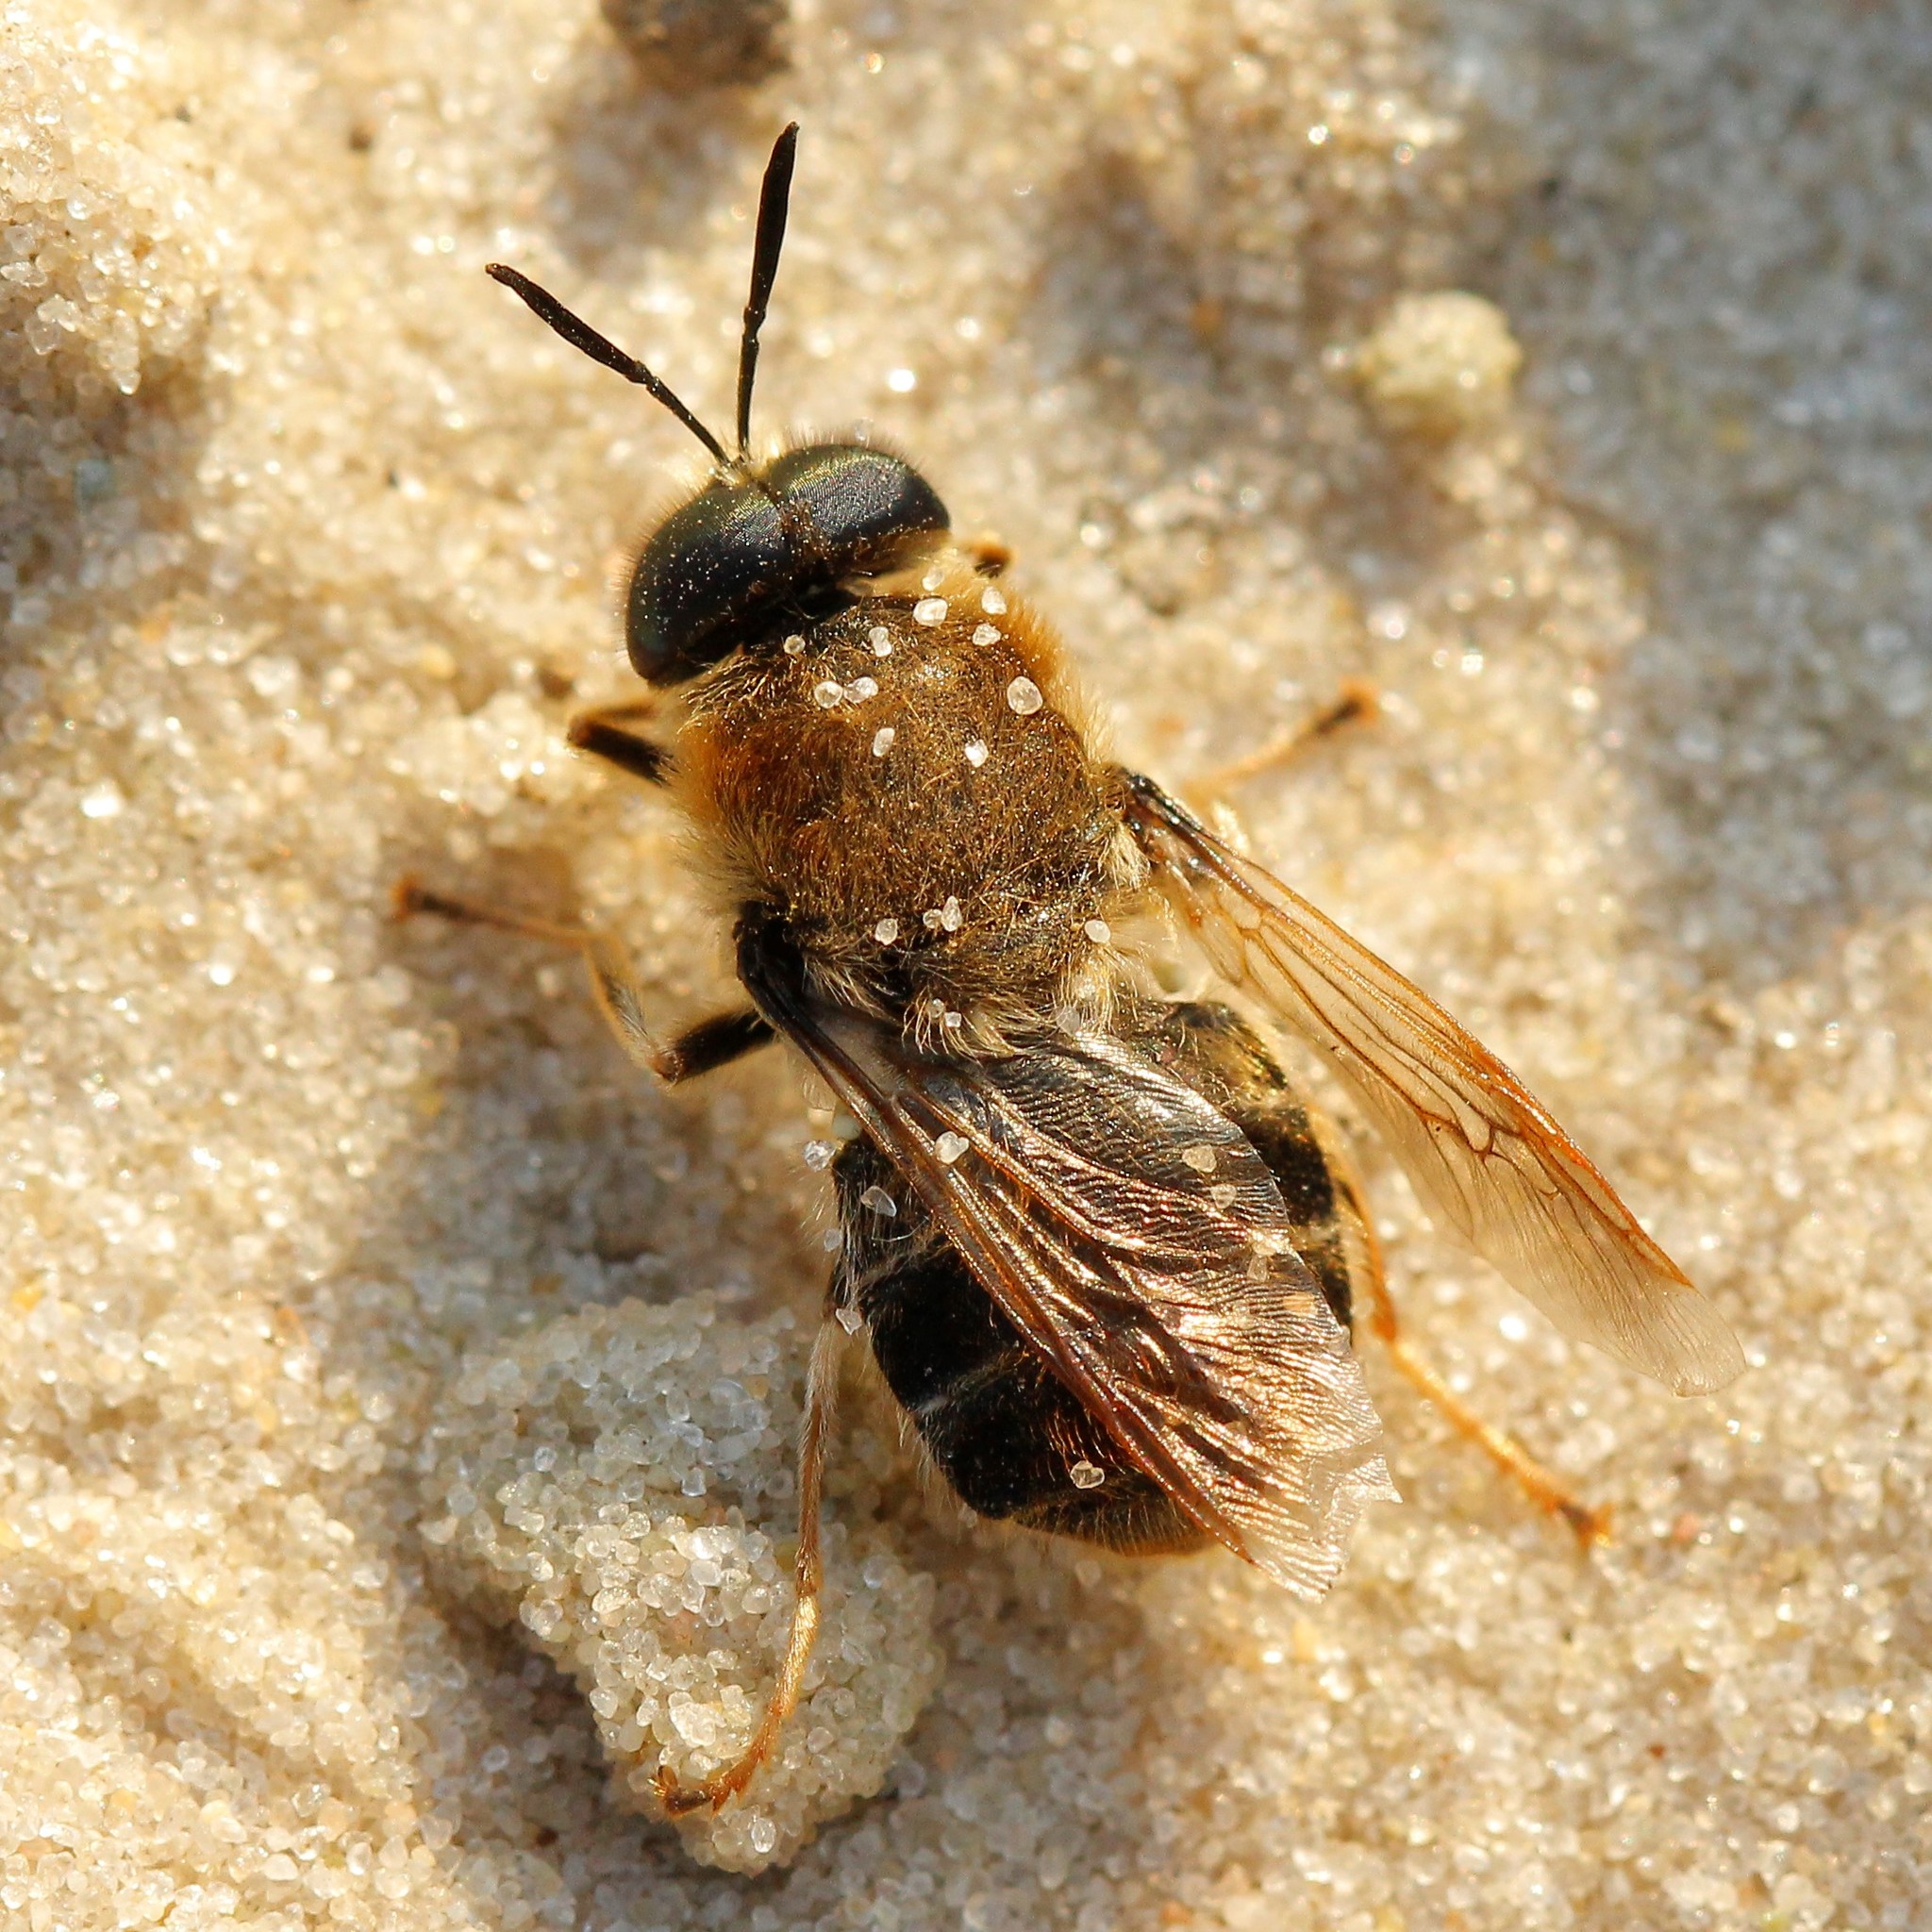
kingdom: Animalia
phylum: Arthropoda
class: Insecta
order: Diptera
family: Stratiomyidae
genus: Stratiomys
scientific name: Stratiomys longicornis
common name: Long-horned general
